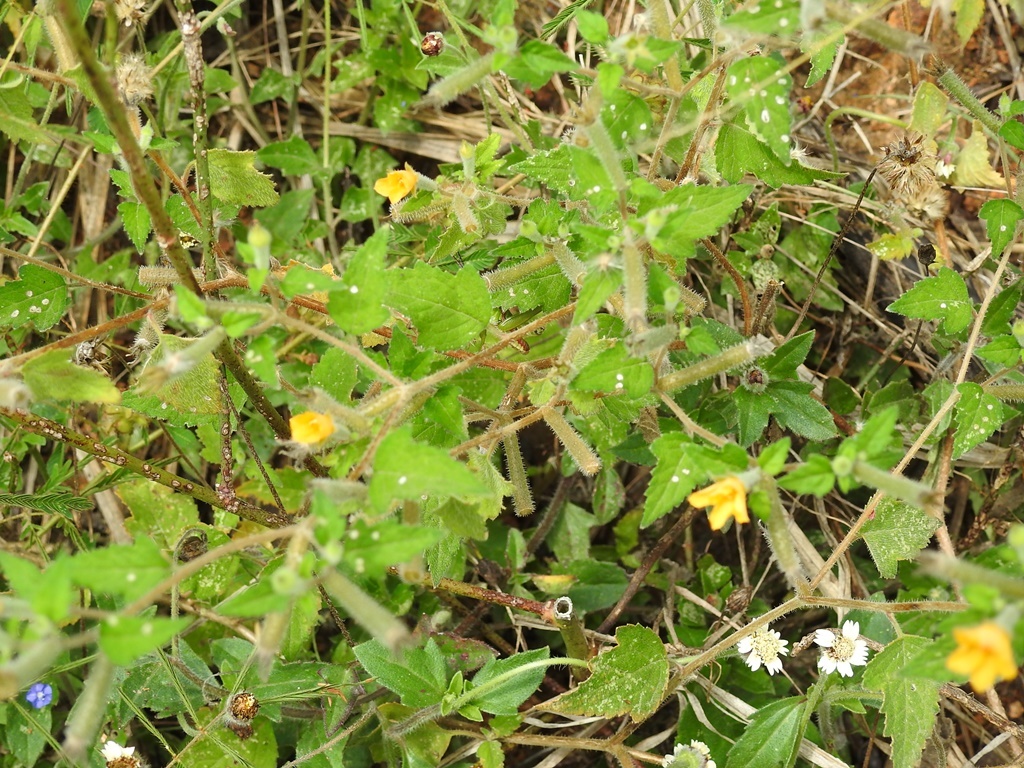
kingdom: Plantae
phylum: Tracheophyta
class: Magnoliopsida
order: Cornales
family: Loasaceae
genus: Mentzelia
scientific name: Mentzelia aspera
